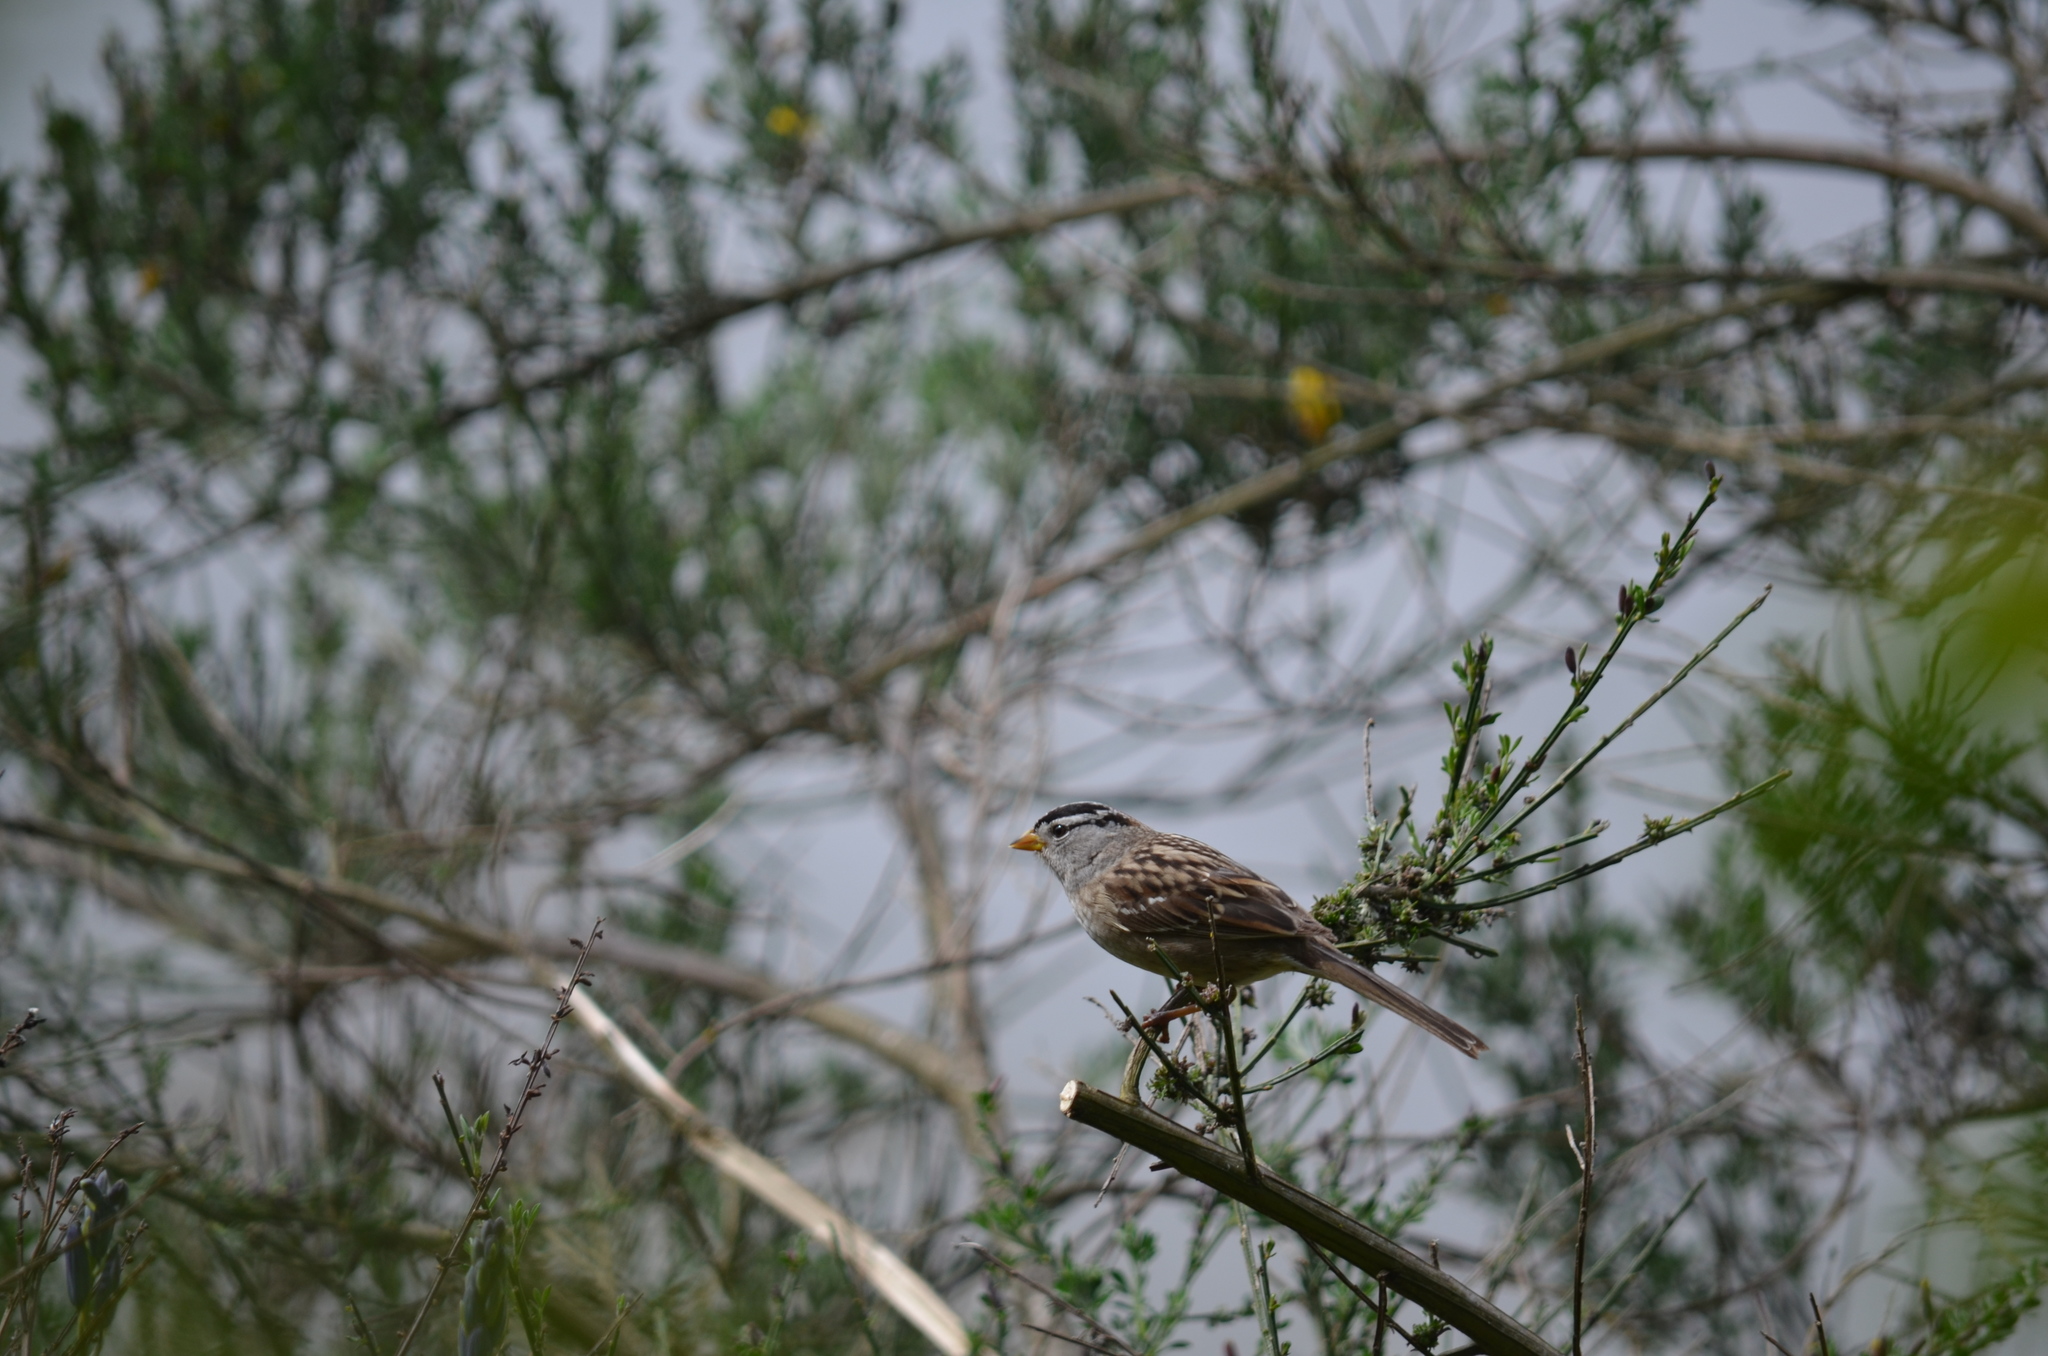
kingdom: Animalia
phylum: Chordata
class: Aves
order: Passeriformes
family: Passerellidae
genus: Zonotrichia
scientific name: Zonotrichia leucophrys
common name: White-crowned sparrow
